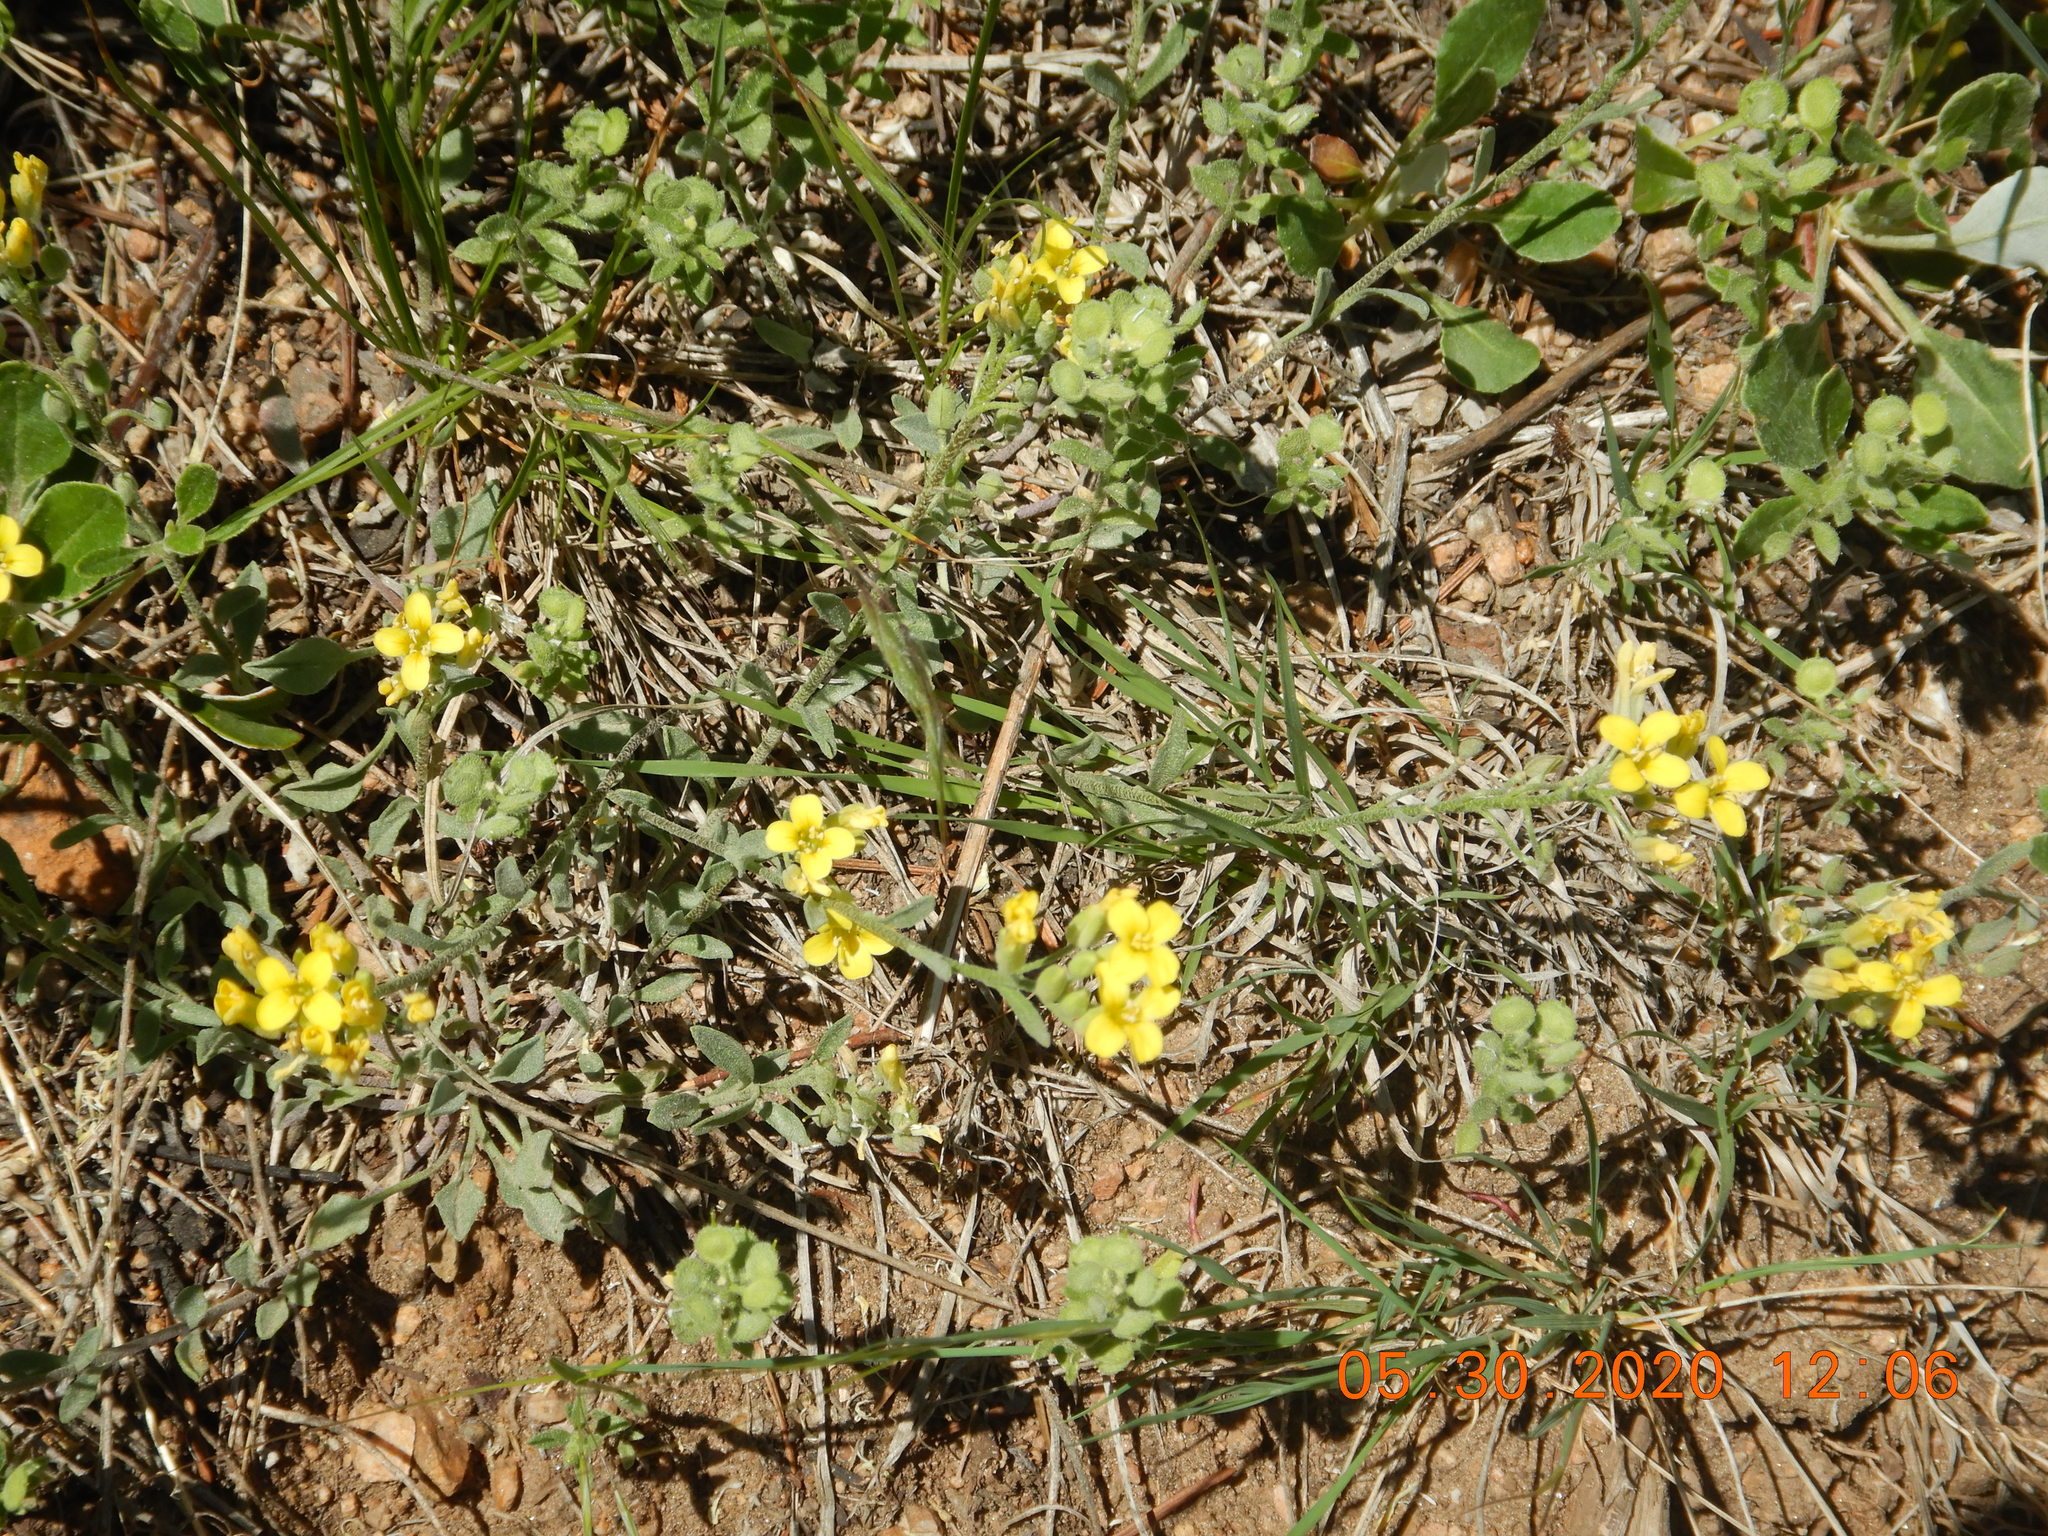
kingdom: Plantae
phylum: Tracheophyta
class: Magnoliopsida
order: Brassicales
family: Brassicaceae
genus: Physaria
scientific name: Physaria montana
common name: Mountain bladderpod
